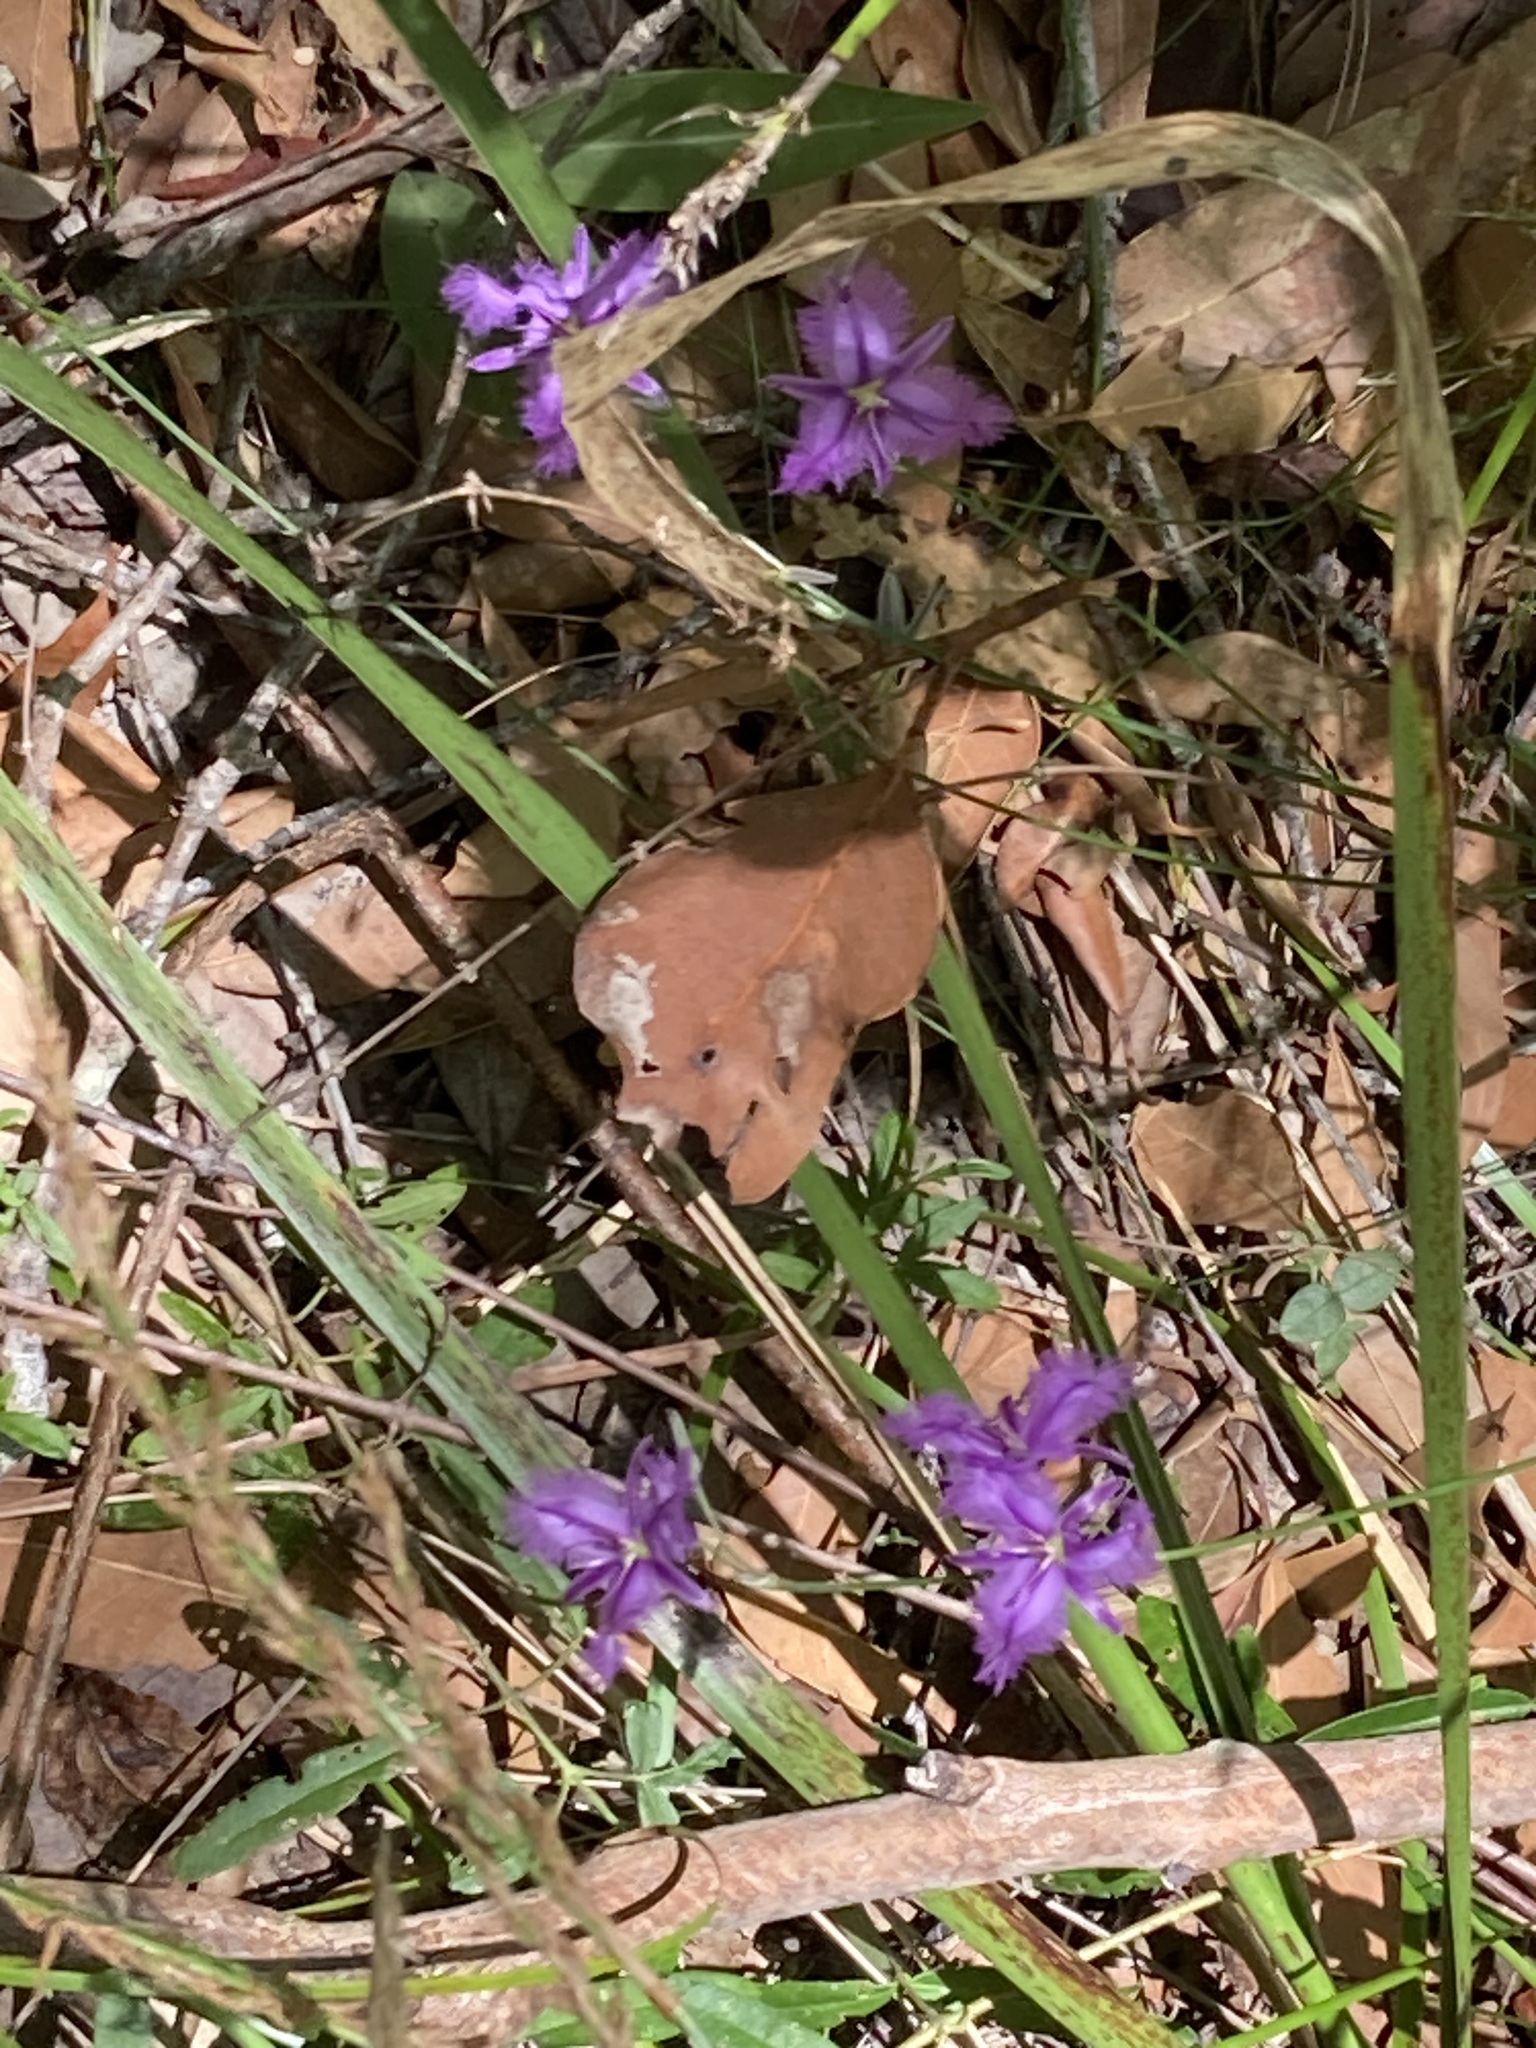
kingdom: Plantae
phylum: Tracheophyta
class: Liliopsida
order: Asparagales
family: Asparagaceae
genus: Thysanotus
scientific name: Thysanotus tuberosus
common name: Common fringed-lily
